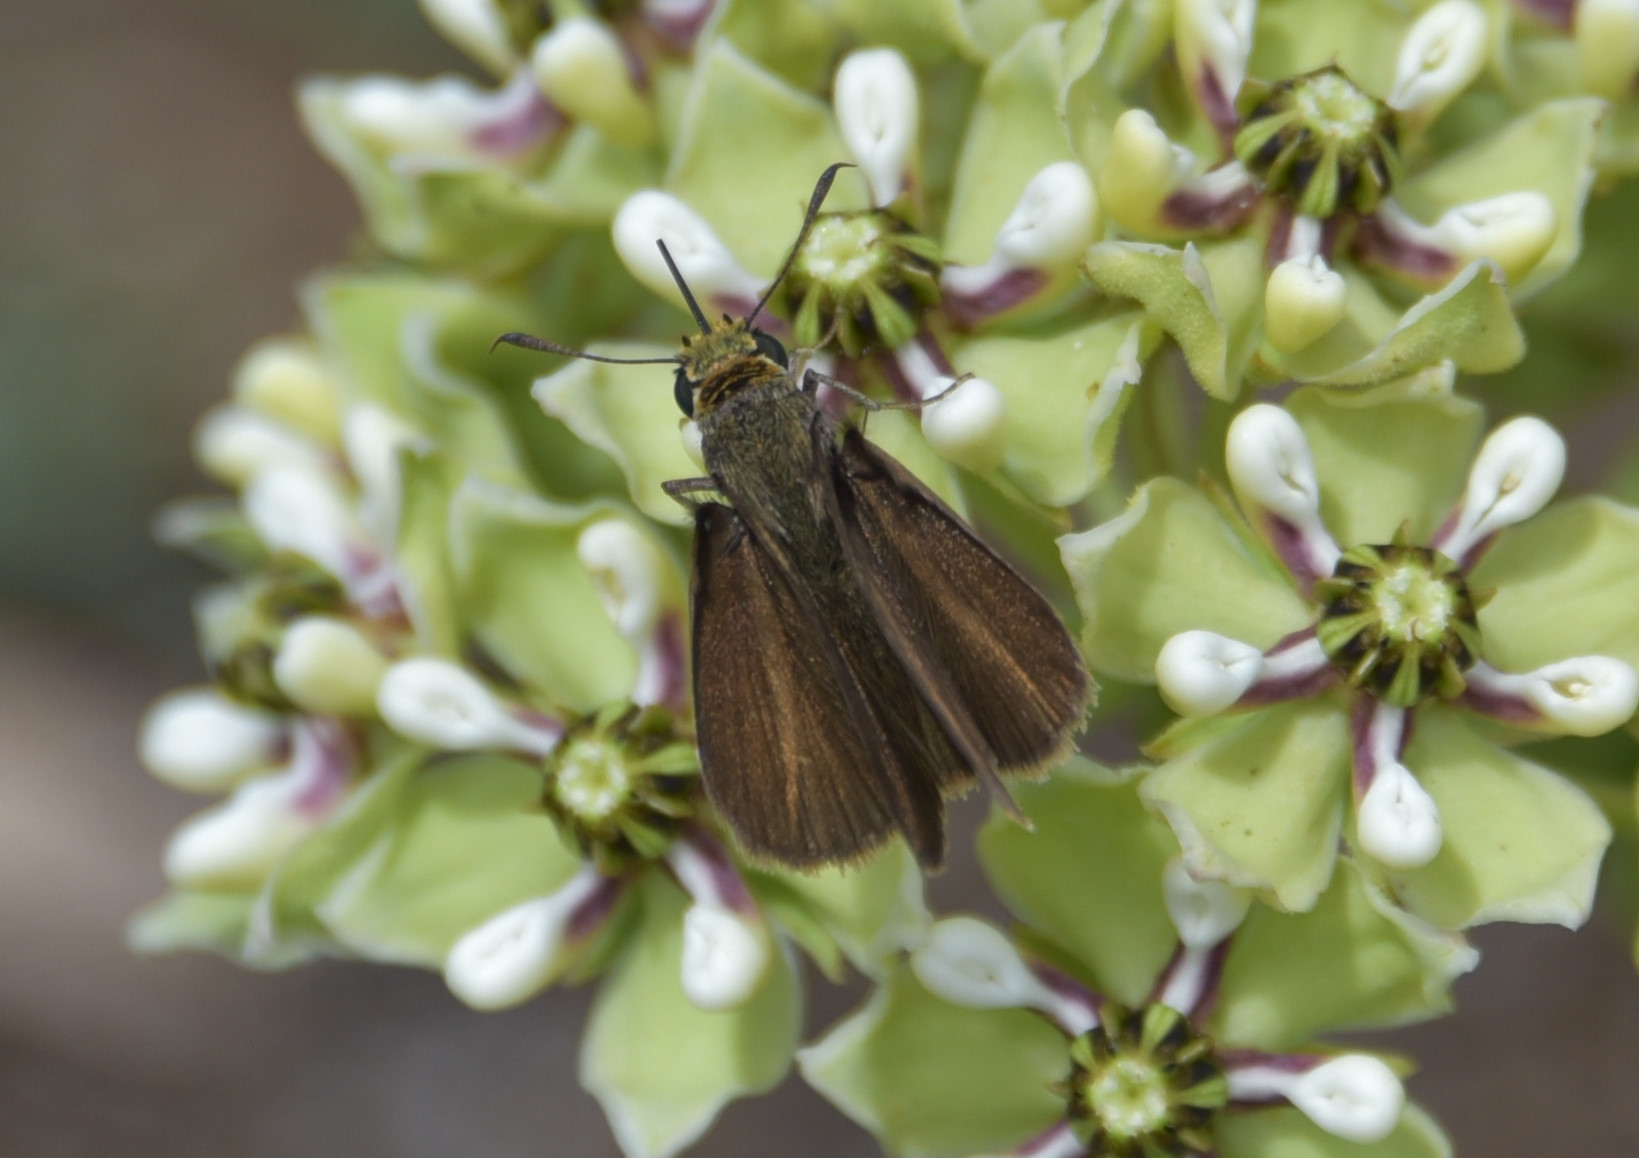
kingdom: Animalia
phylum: Arthropoda
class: Insecta
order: Lepidoptera
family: Hesperiidae
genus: Euphyes
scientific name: Euphyes vestris
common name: Dun skipper
